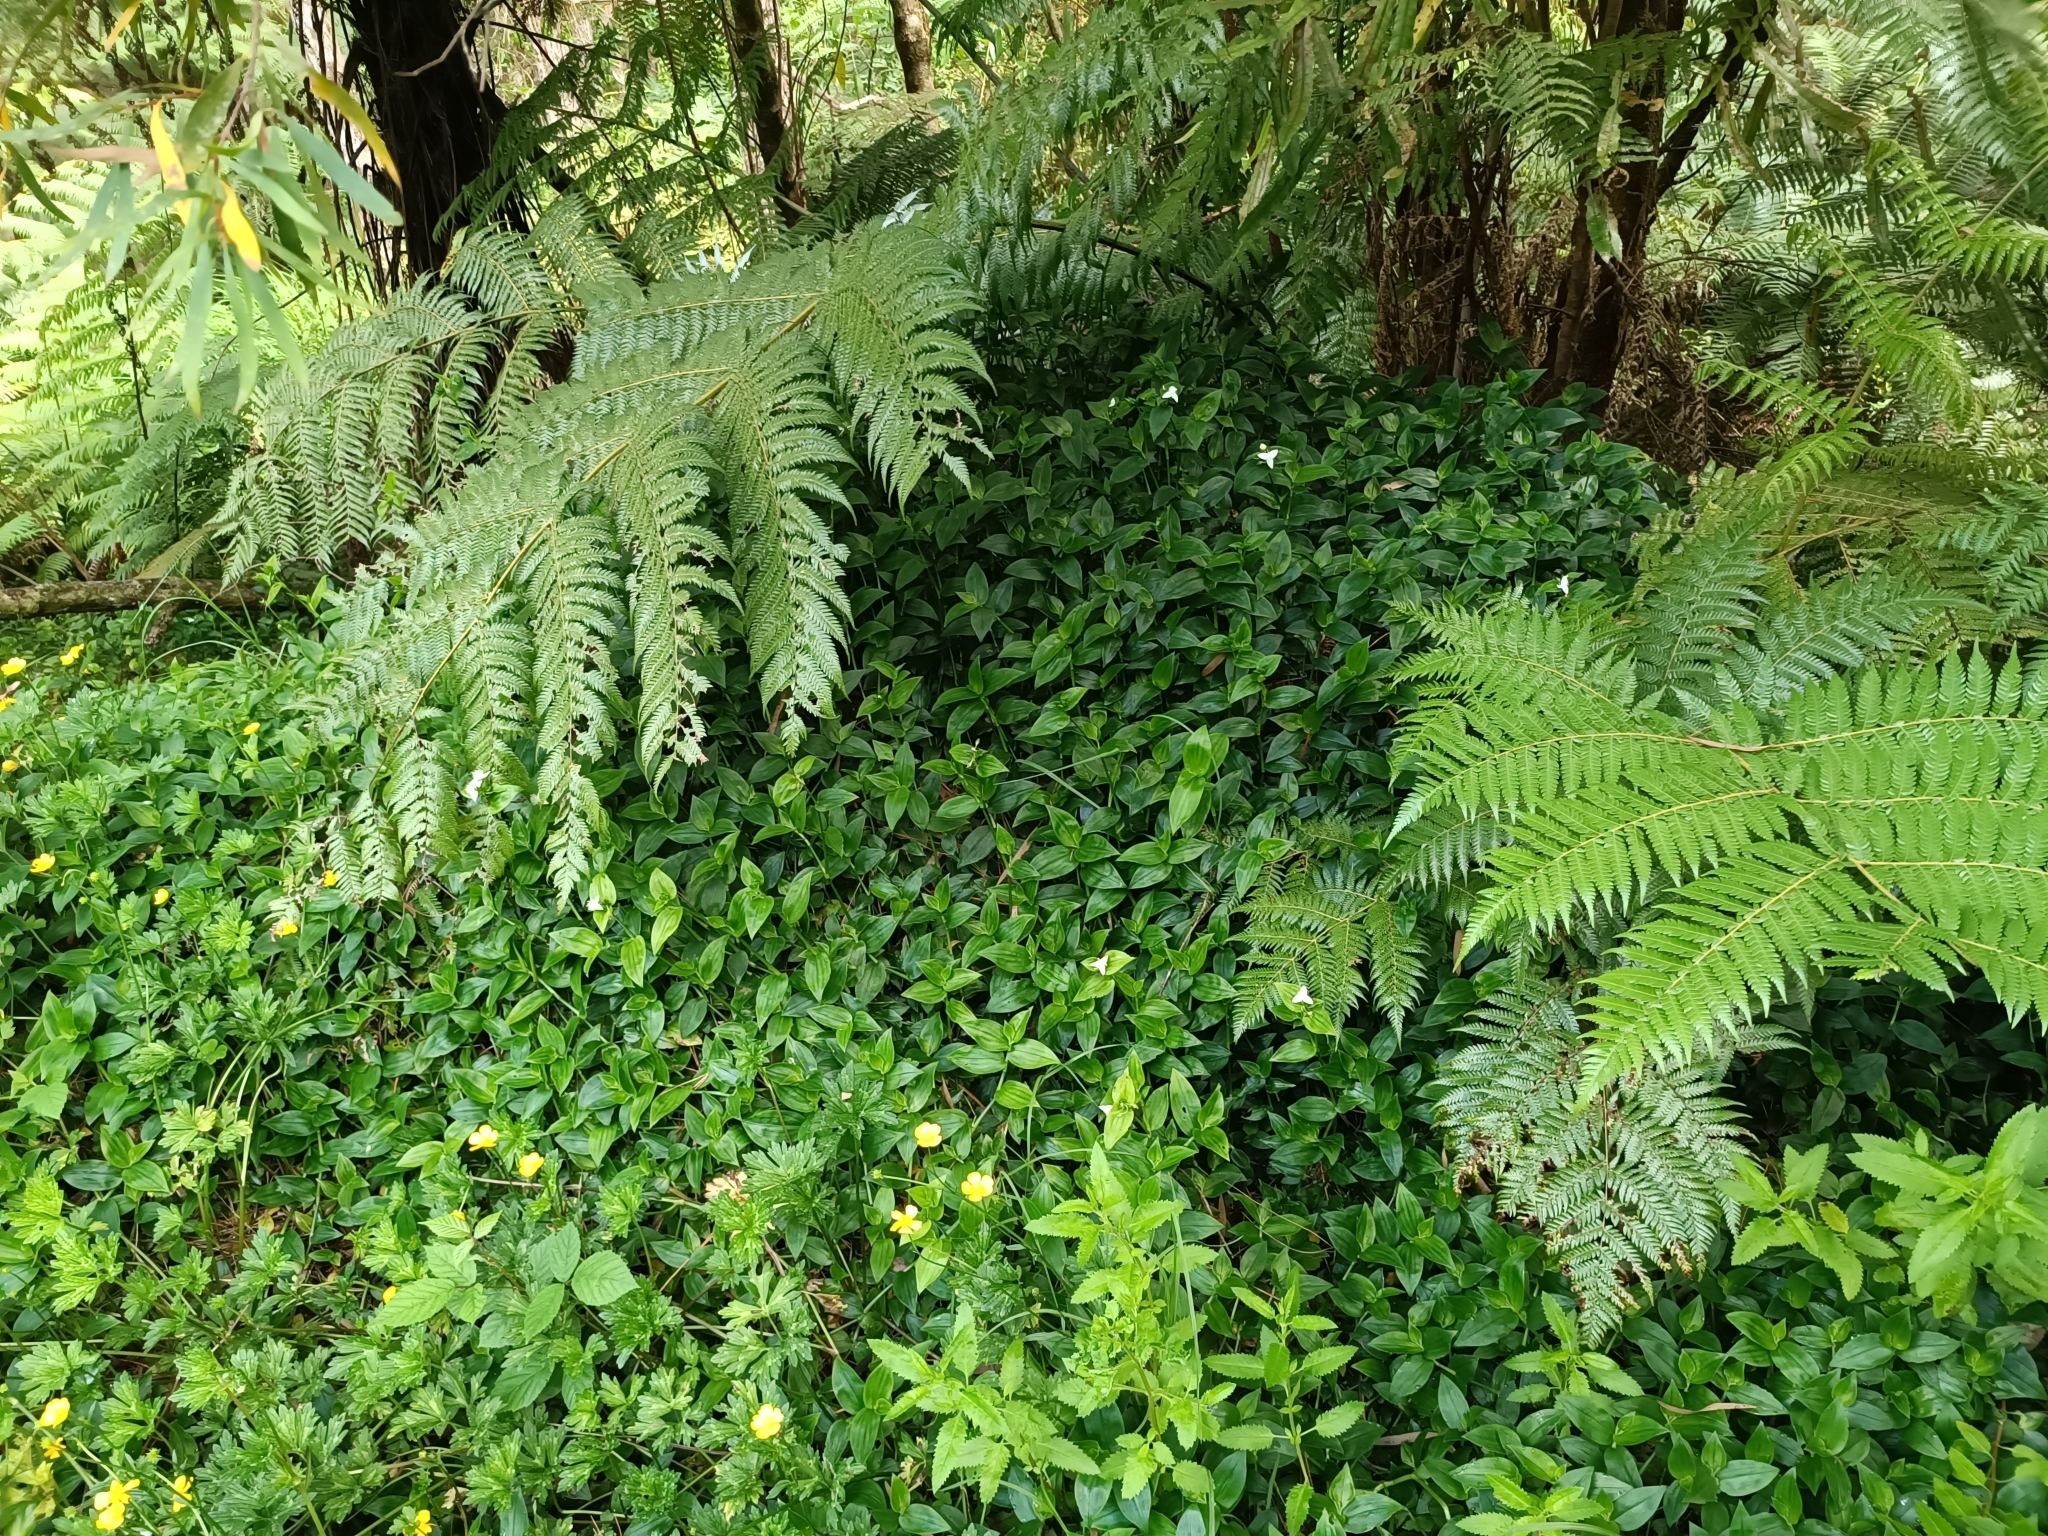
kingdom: Plantae
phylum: Tracheophyta
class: Liliopsida
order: Commelinales
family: Commelinaceae
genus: Tradescantia
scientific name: Tradescantia fluminensis
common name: Wandering-jew
